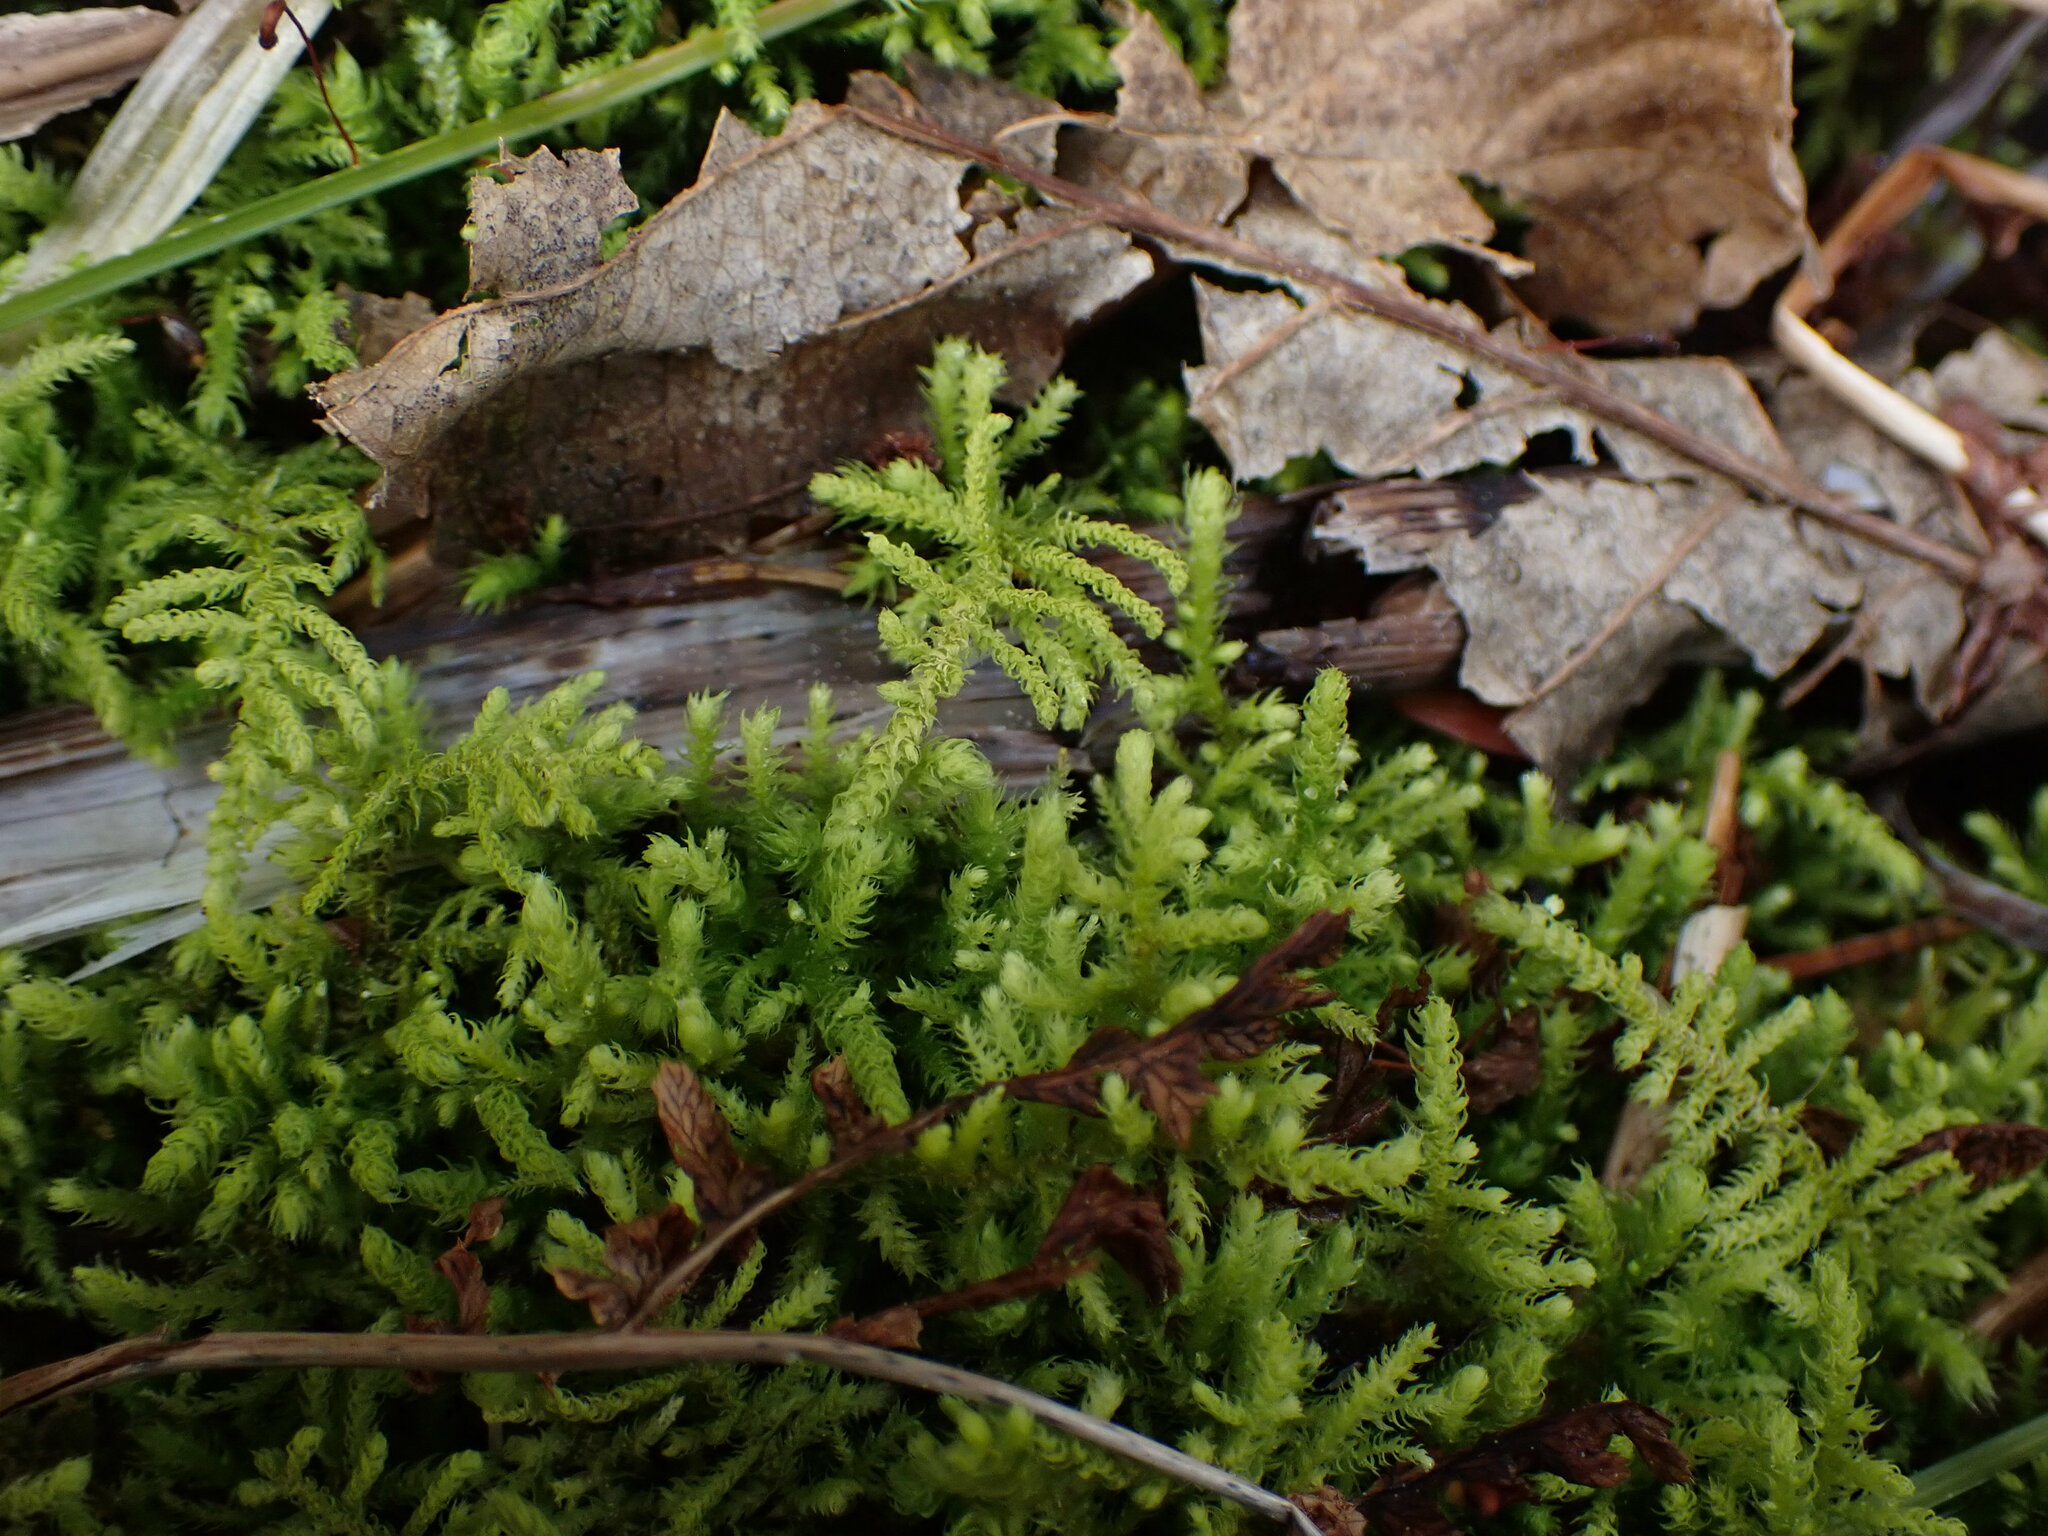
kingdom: Plantae
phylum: Bryophyta
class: Bryopsida
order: Hypnales
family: Brachytheciaceae
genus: Claopodium
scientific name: Claopodium crispifolium
